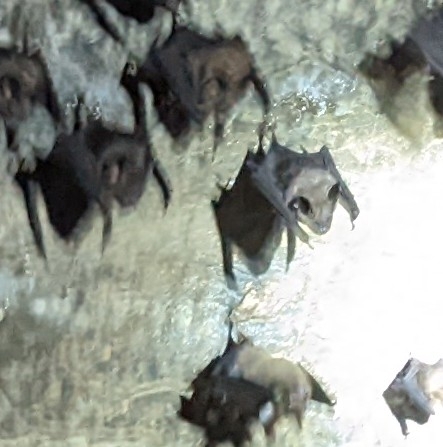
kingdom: Animalia
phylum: Chordata
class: Mammalia
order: Chiroptera
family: Hipposideridae
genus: Hipposideros
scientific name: Hipposideros armiger
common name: Great leaf-nosed bat
